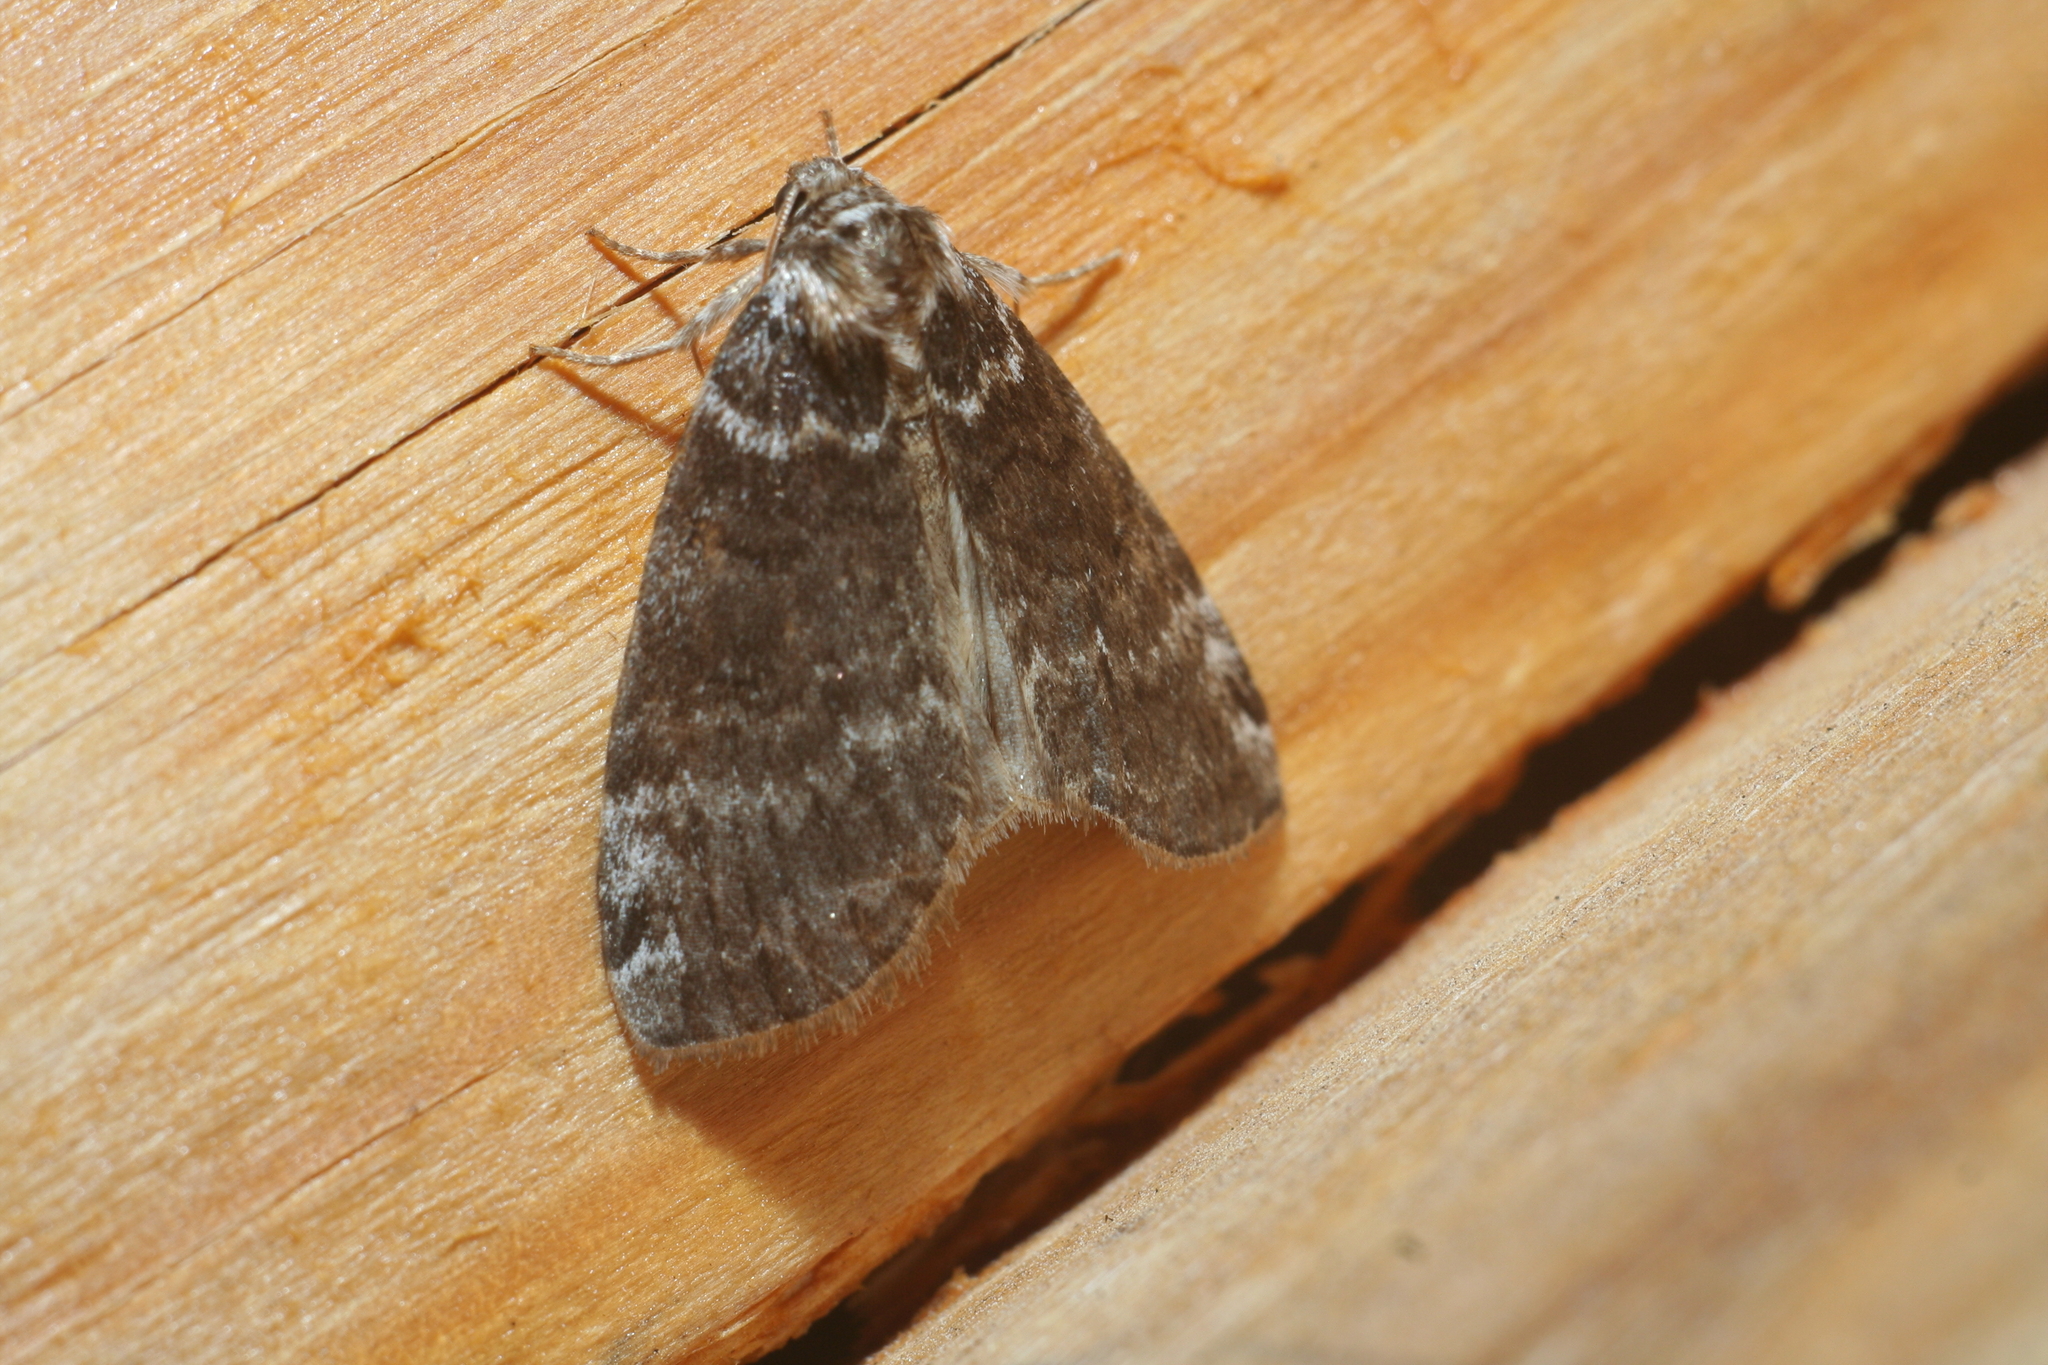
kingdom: Animalia
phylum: Arthropoda
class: Insecta
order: Lepidoptera
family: Drepanidae
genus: Tetheella
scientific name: Tetheella fluctuosa
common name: Satin lutestring
